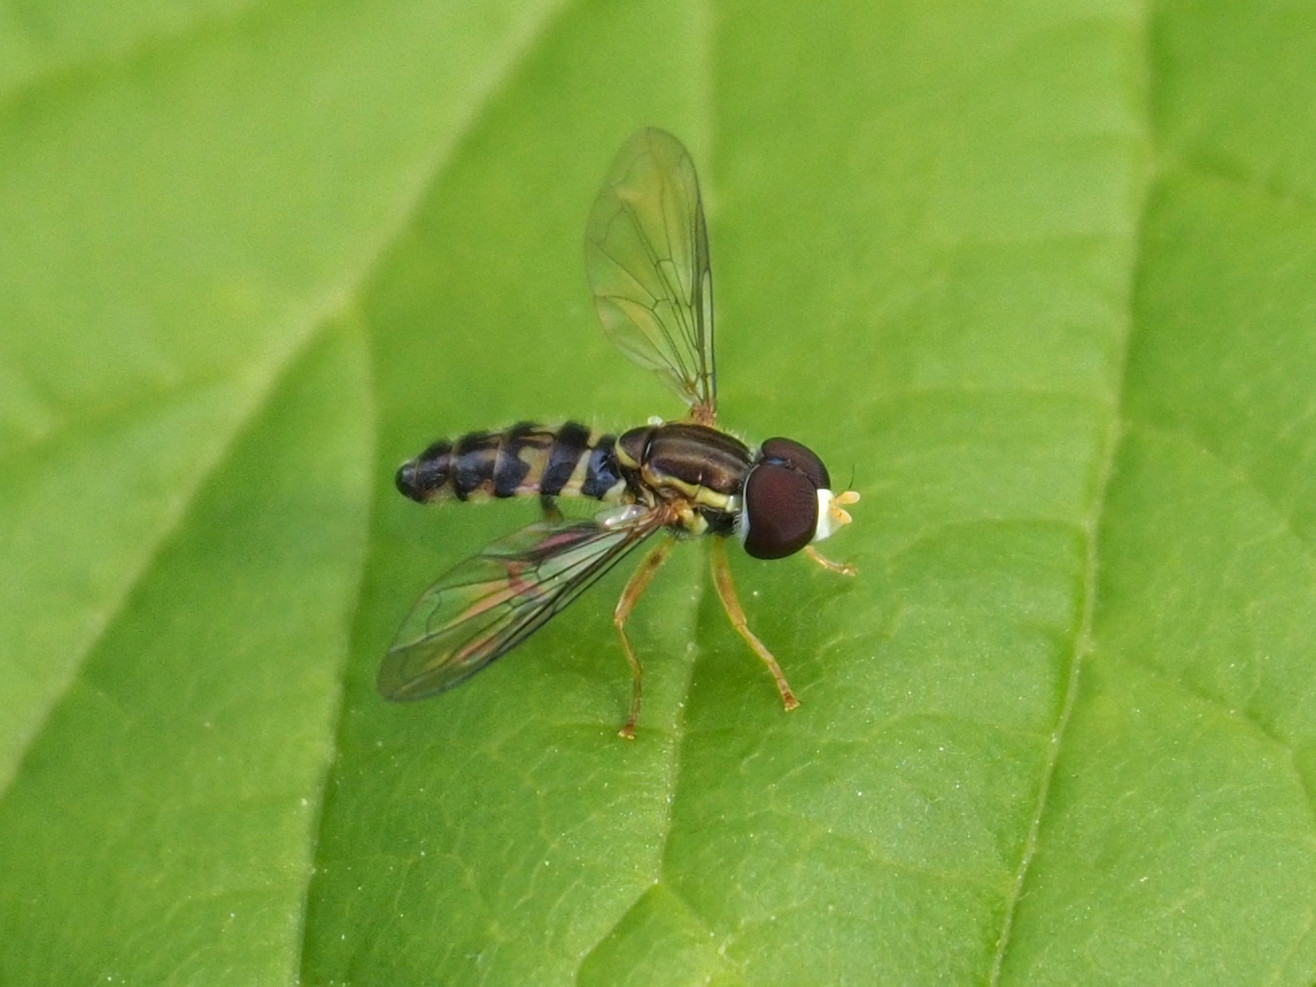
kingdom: Animalia
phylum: Arthropoda
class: Insecta
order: Diptera
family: Syrphidae
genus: Toxomerus
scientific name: Toxomerus geminatus
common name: Eastern calligrapher
